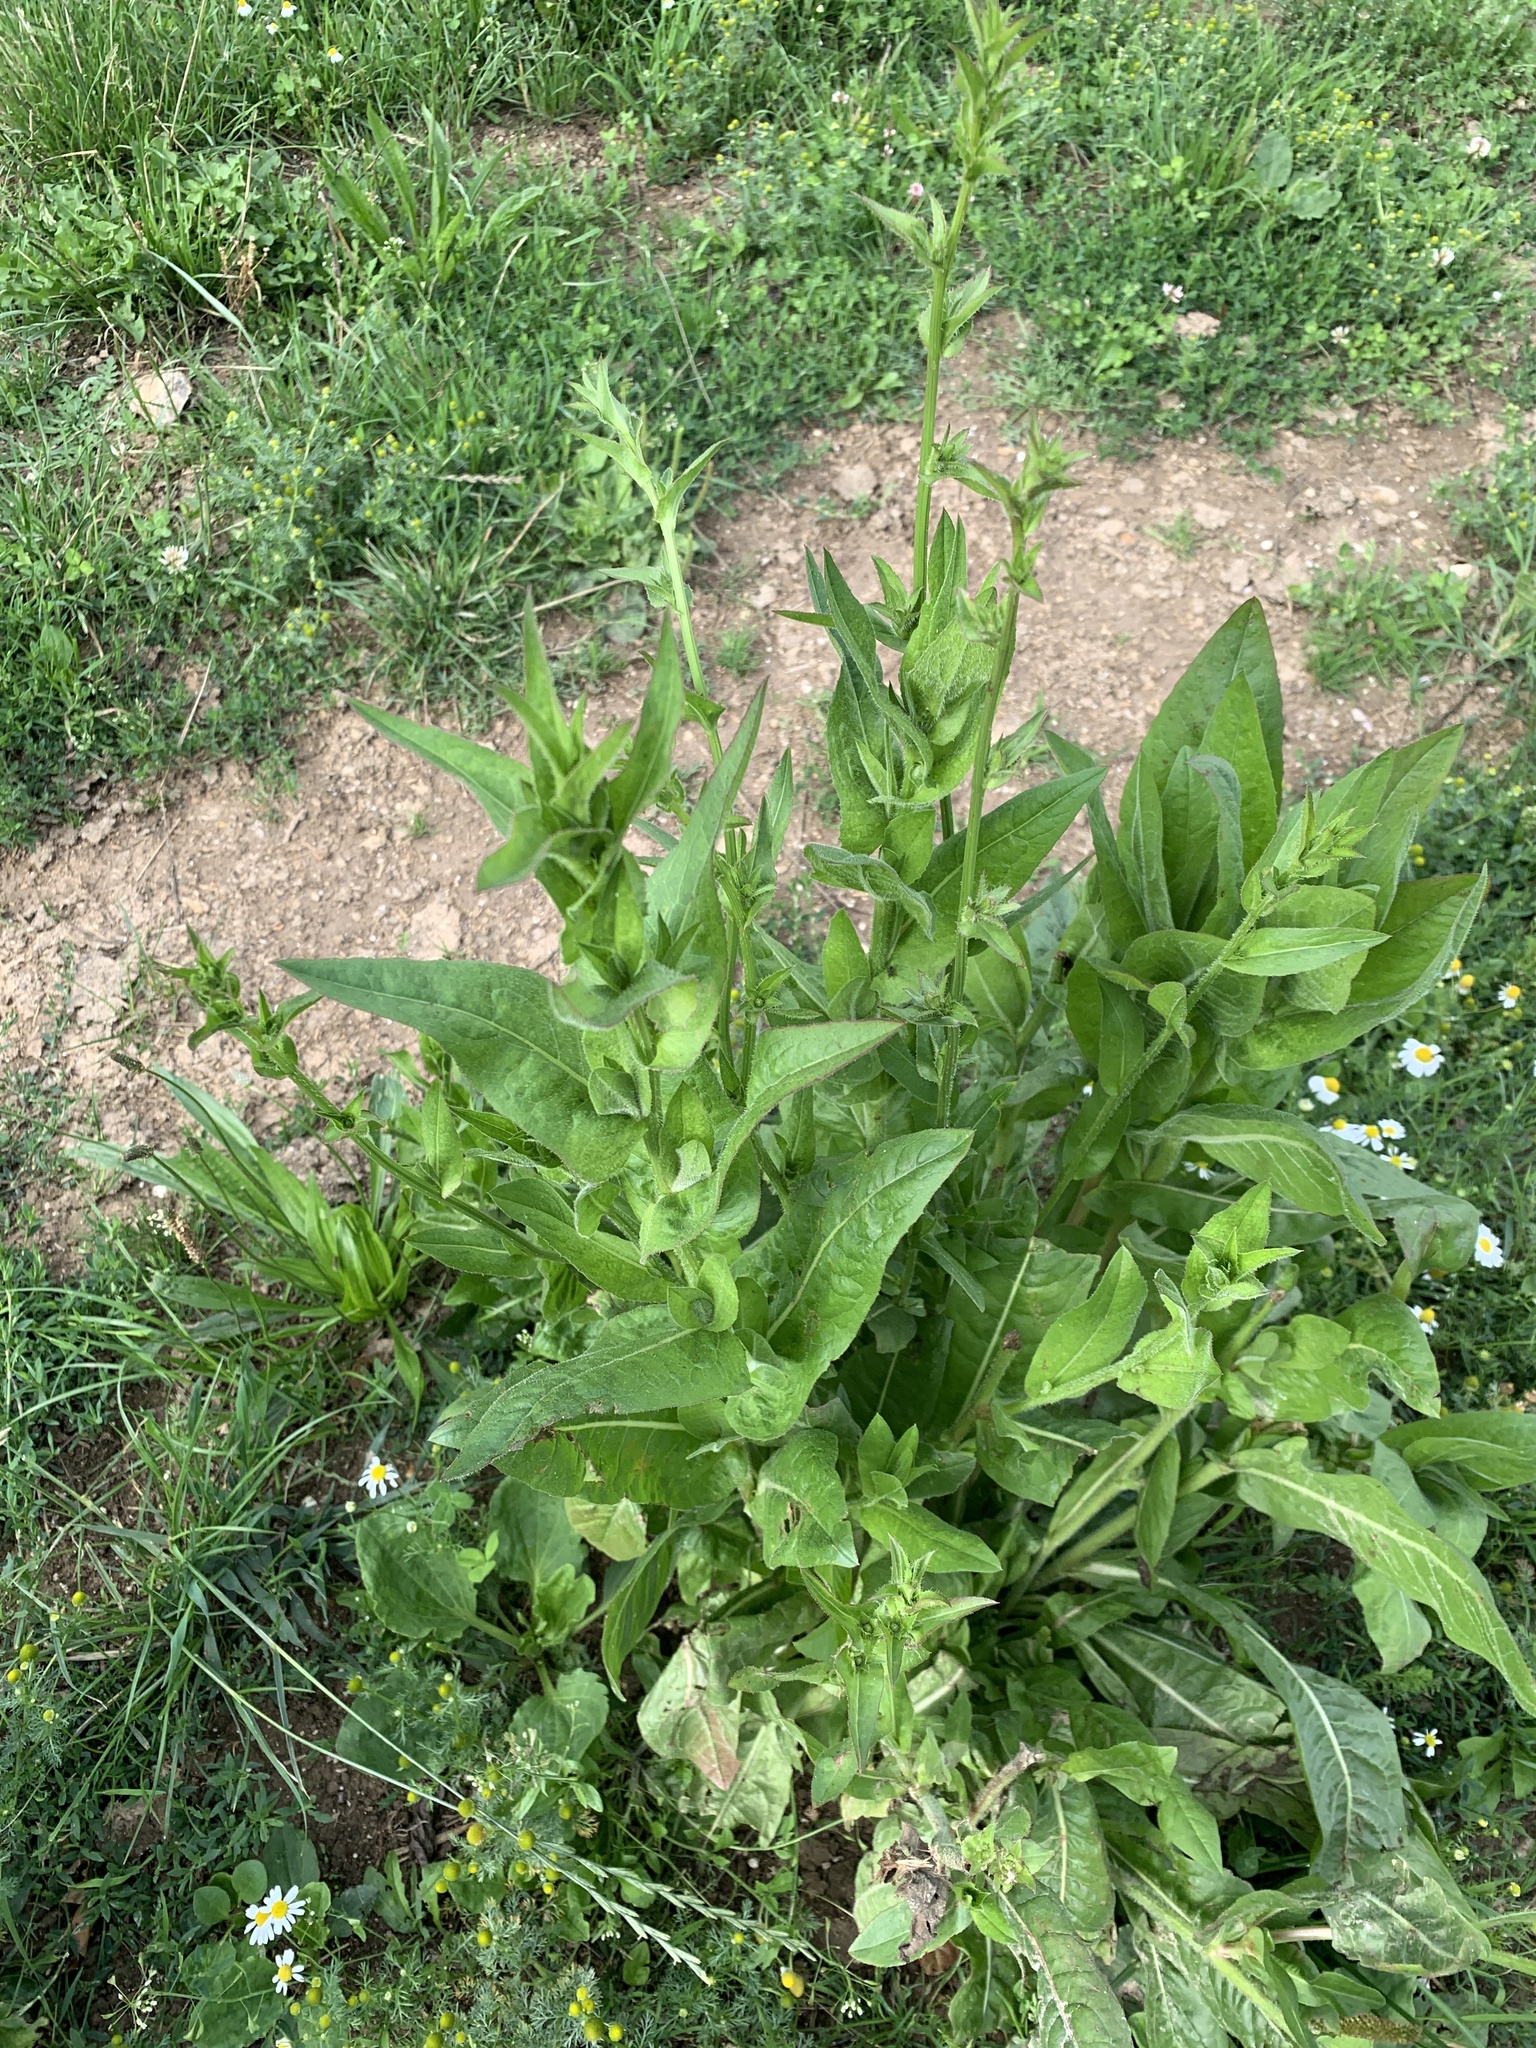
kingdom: Plantae
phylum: Tracheophyta
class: Magnoliopsida
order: Asterales
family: Asteraceae
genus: Cichorium
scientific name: Cichorium intybus
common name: Chicory
